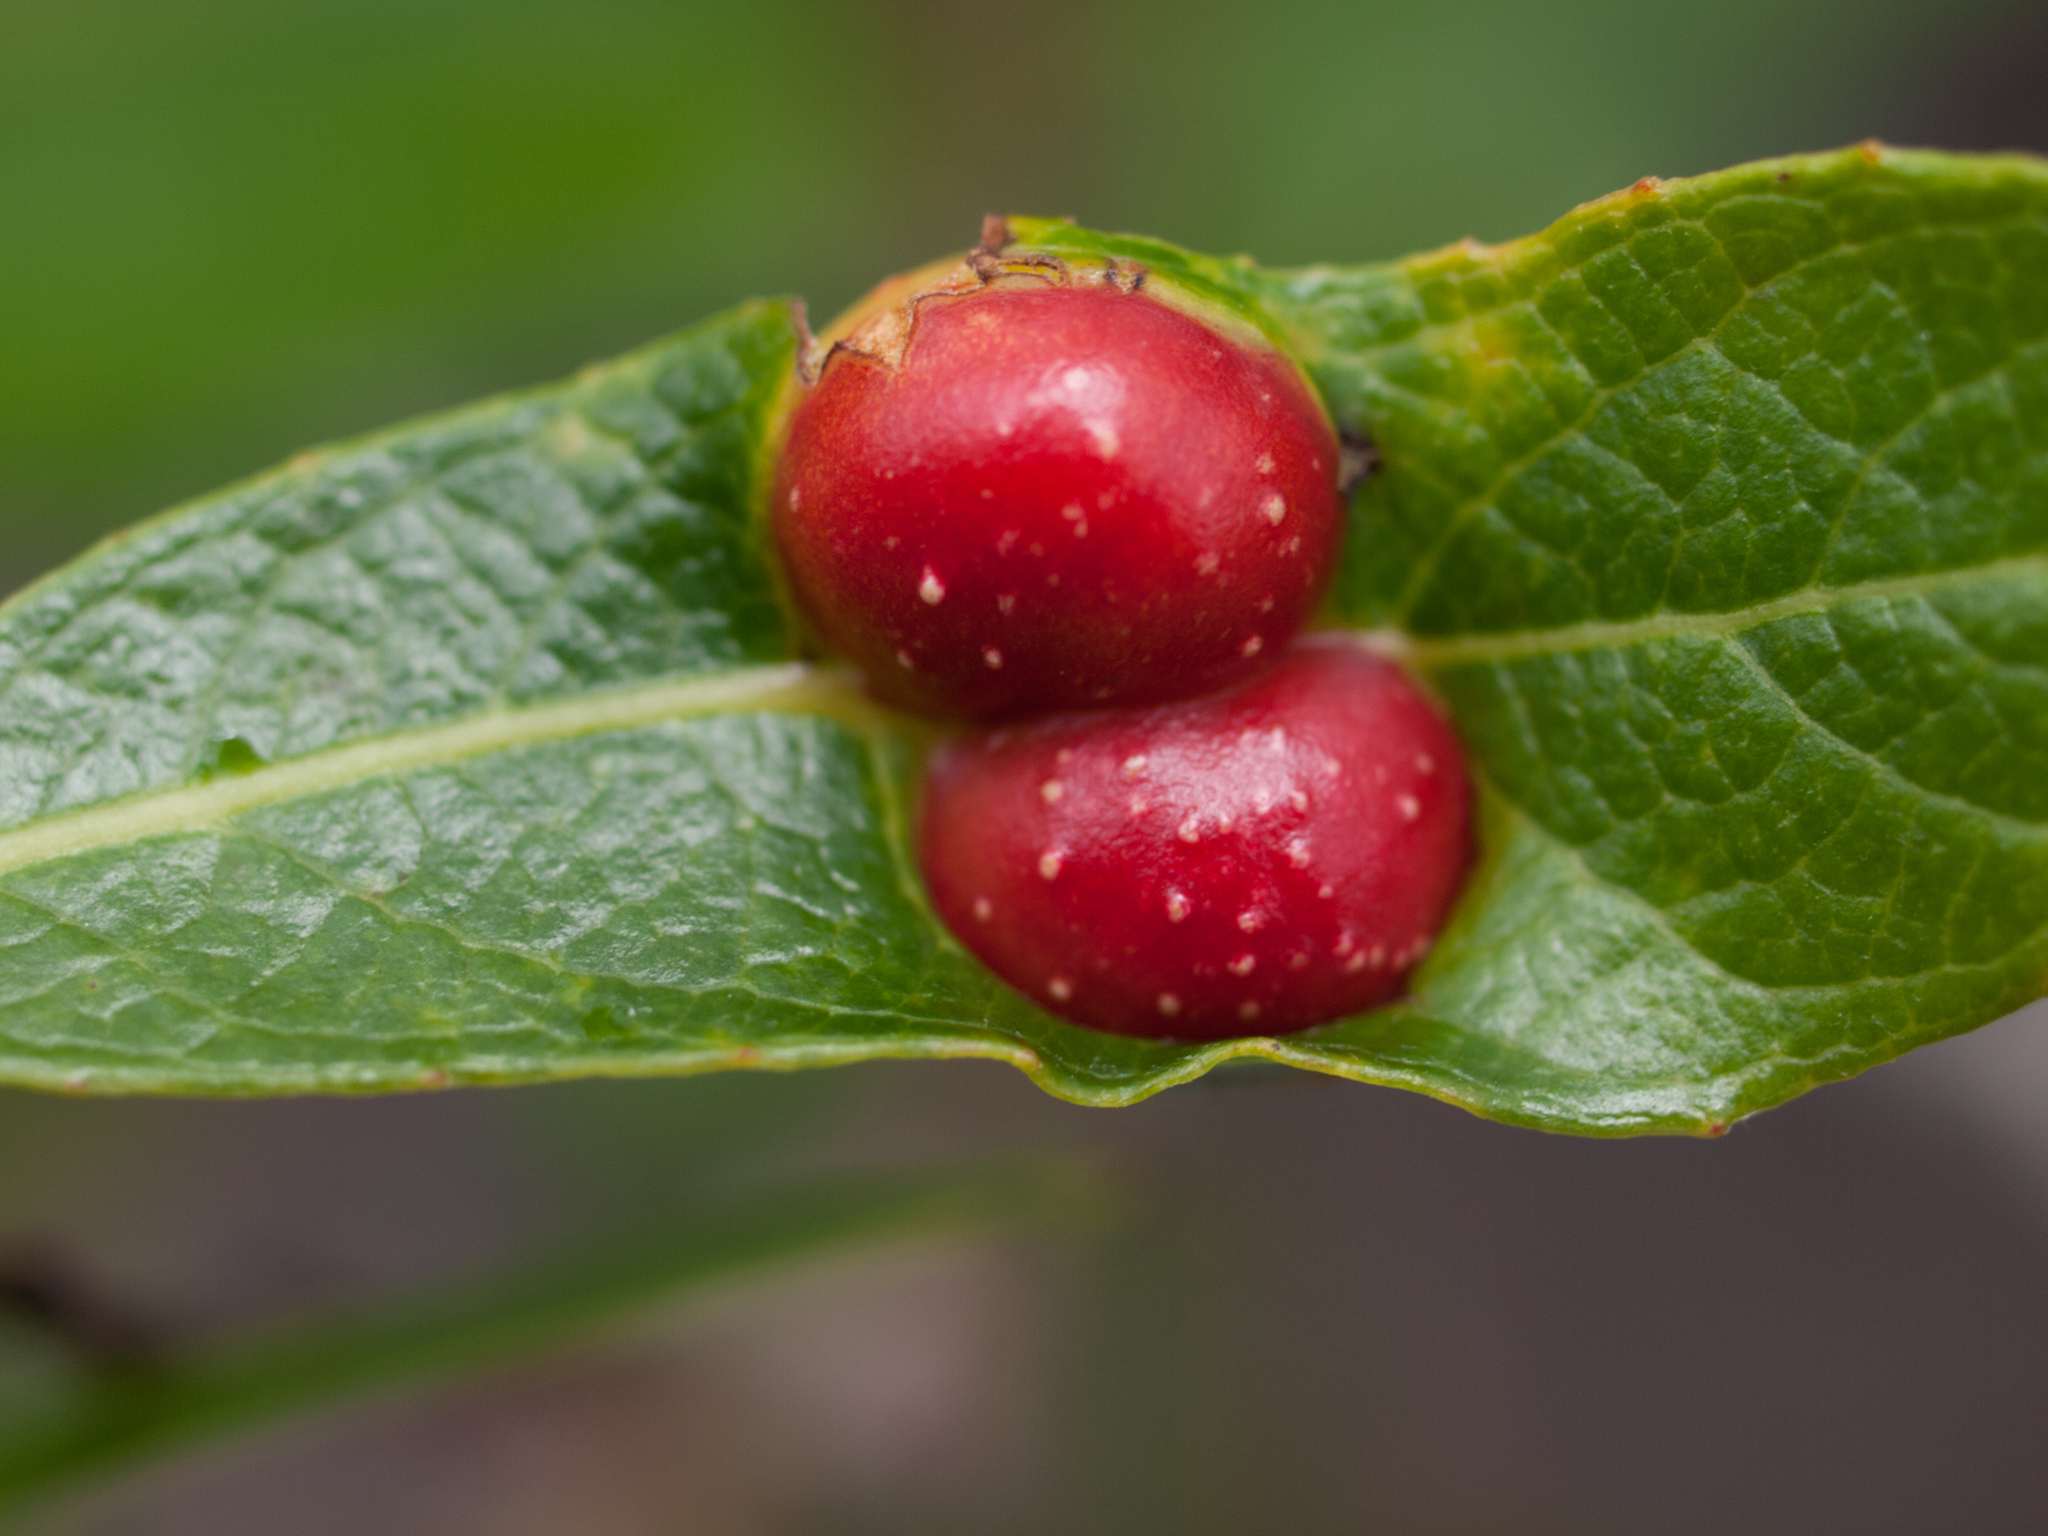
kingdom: Animalia
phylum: Arthropoda
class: Insecta
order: Hymenoptera
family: Tenthredinidae
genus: Euura
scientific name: Euura
